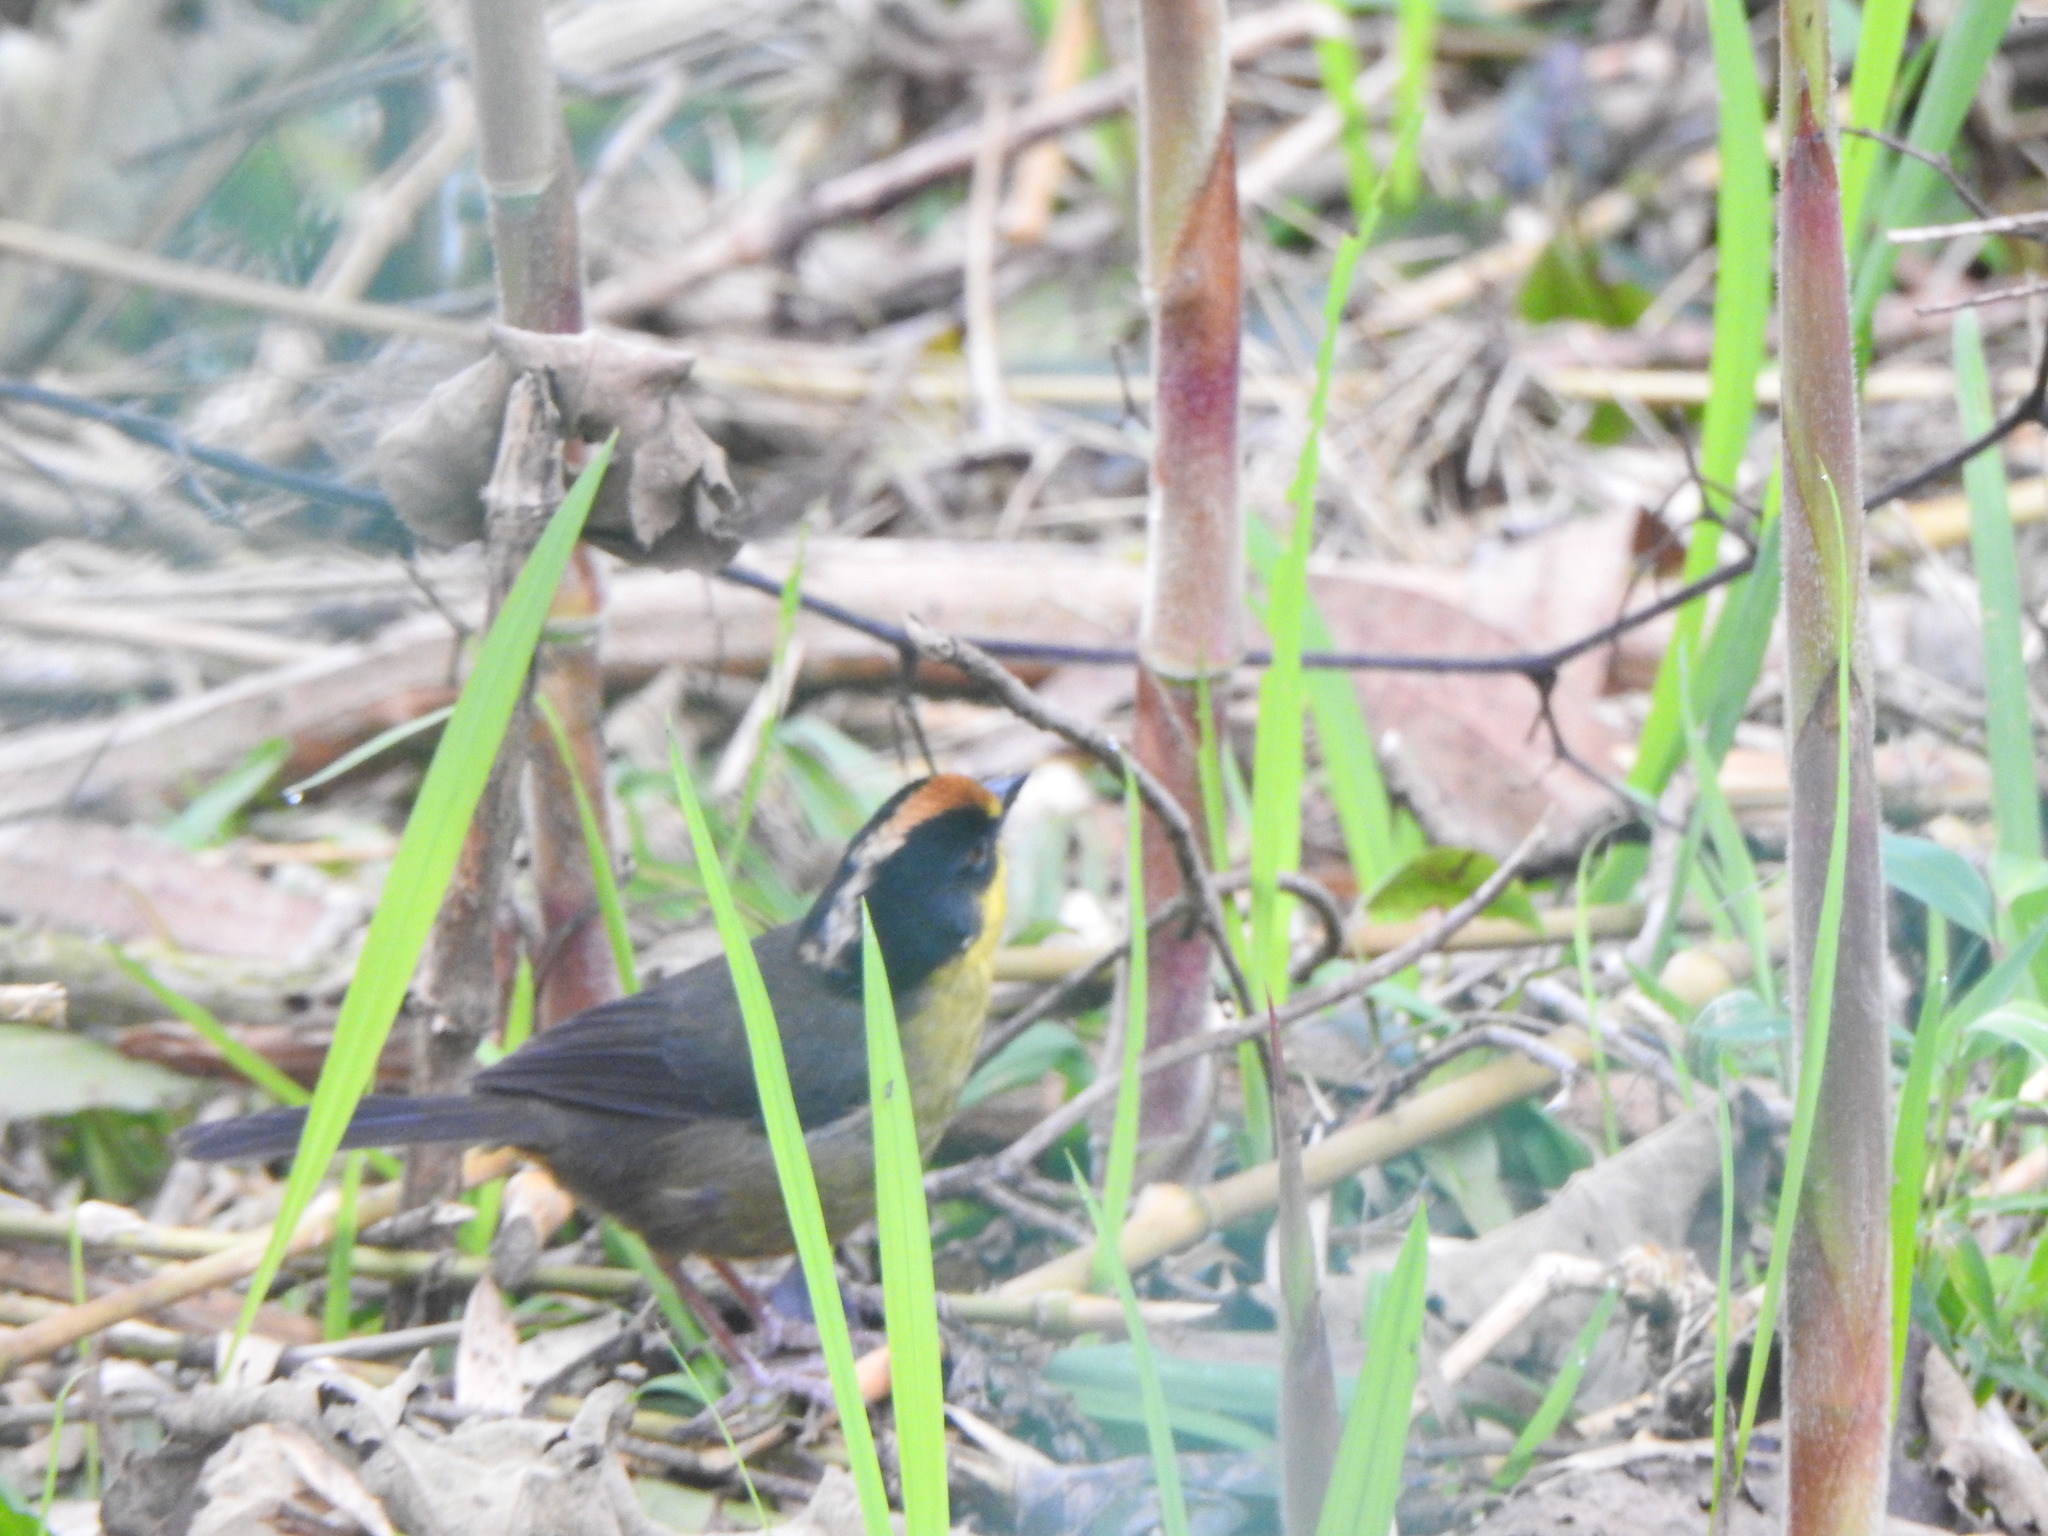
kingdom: Animalia
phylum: Chordata
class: Aves
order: Passeriformes
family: Passerellidae
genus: Atlapetes
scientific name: Atlapetes pallidinucha
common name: Pale-naped brushfinch
